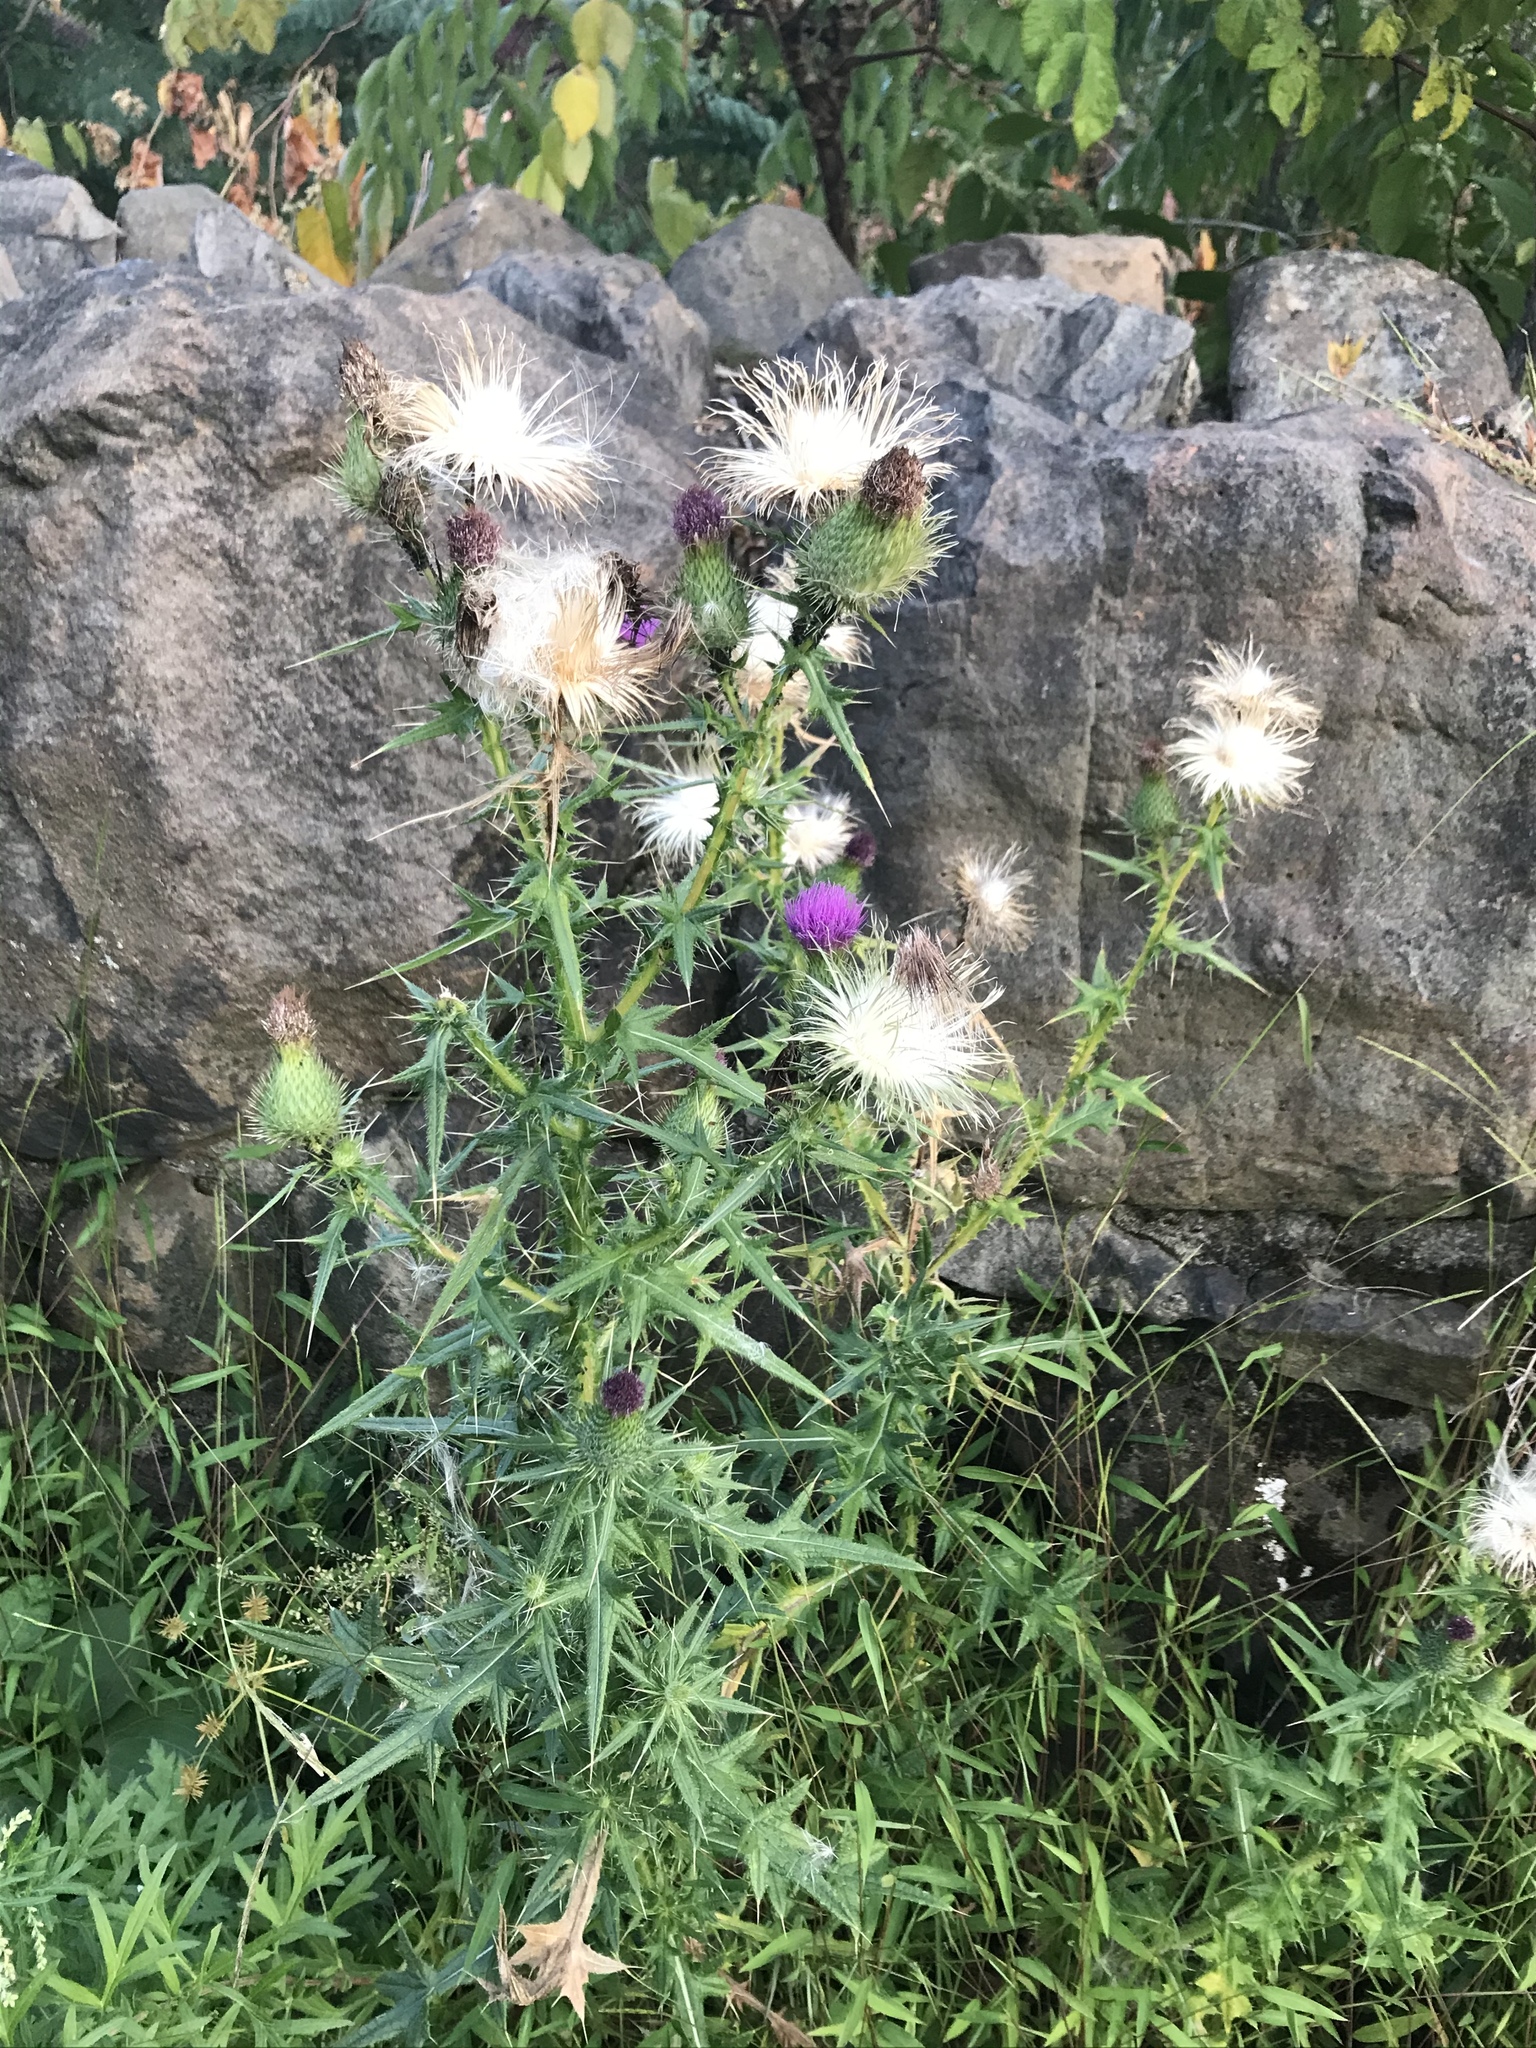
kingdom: Plantae
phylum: Tracheophyta
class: Magnoliopsida
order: Asterales
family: Asteraceae
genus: Cirsium
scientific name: Cirsium vulgare
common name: Bull thistle
